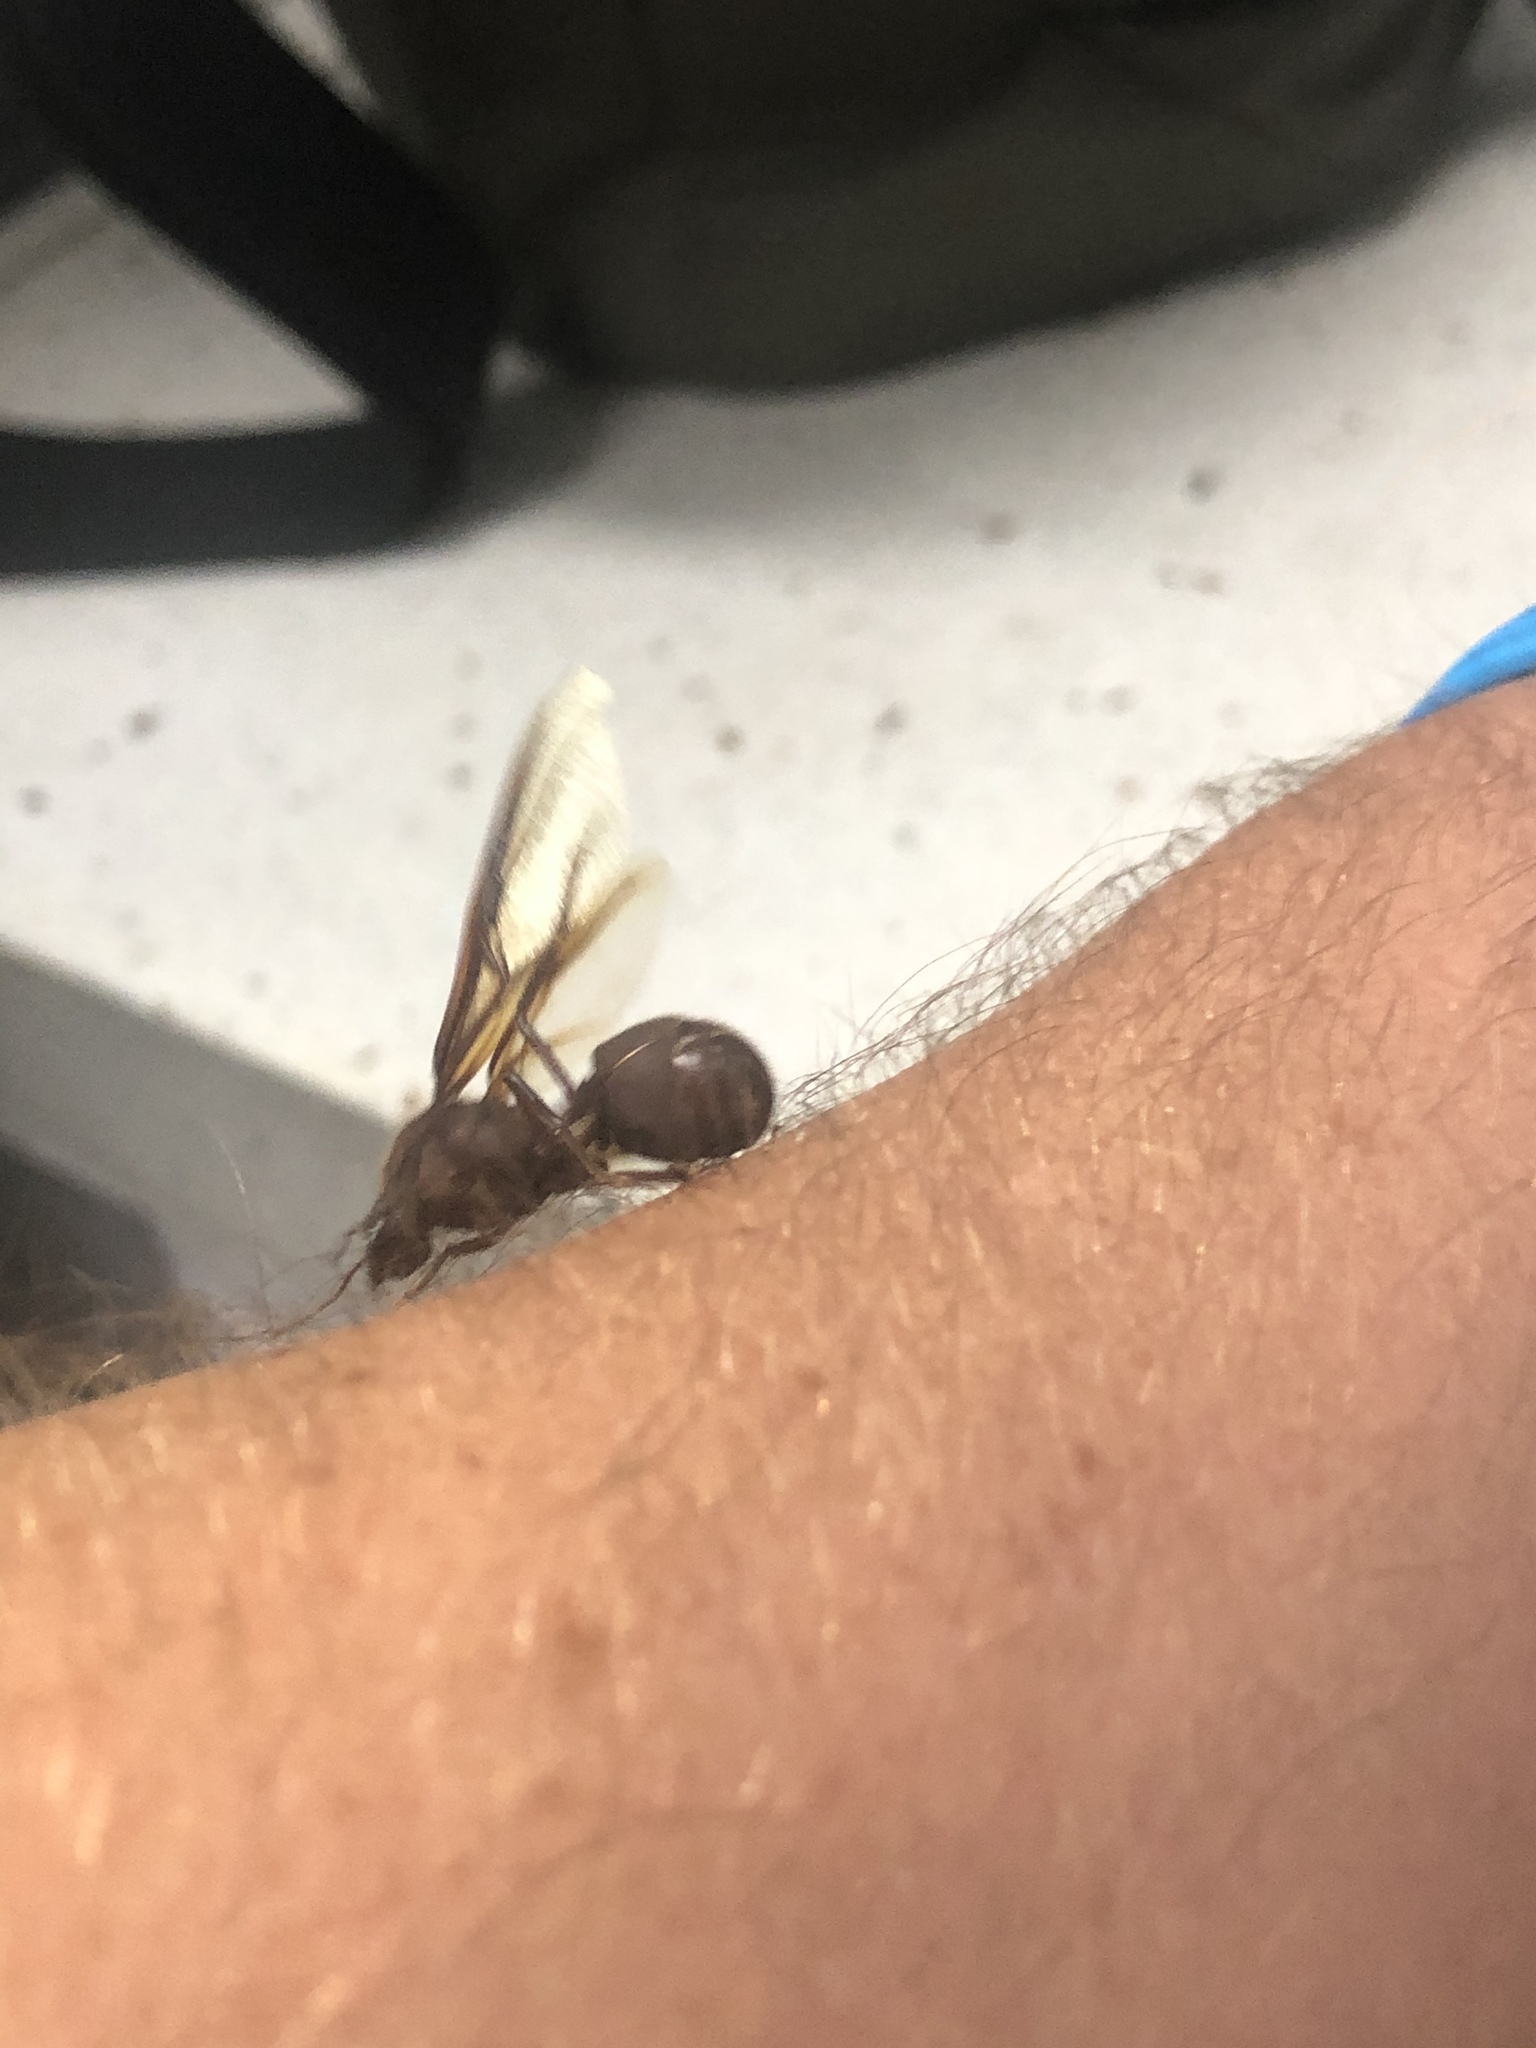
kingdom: Animalia
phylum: Arthropoda
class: Insecta
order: Hymenoptera
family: Formicidae
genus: Atta
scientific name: Atta laevigata
